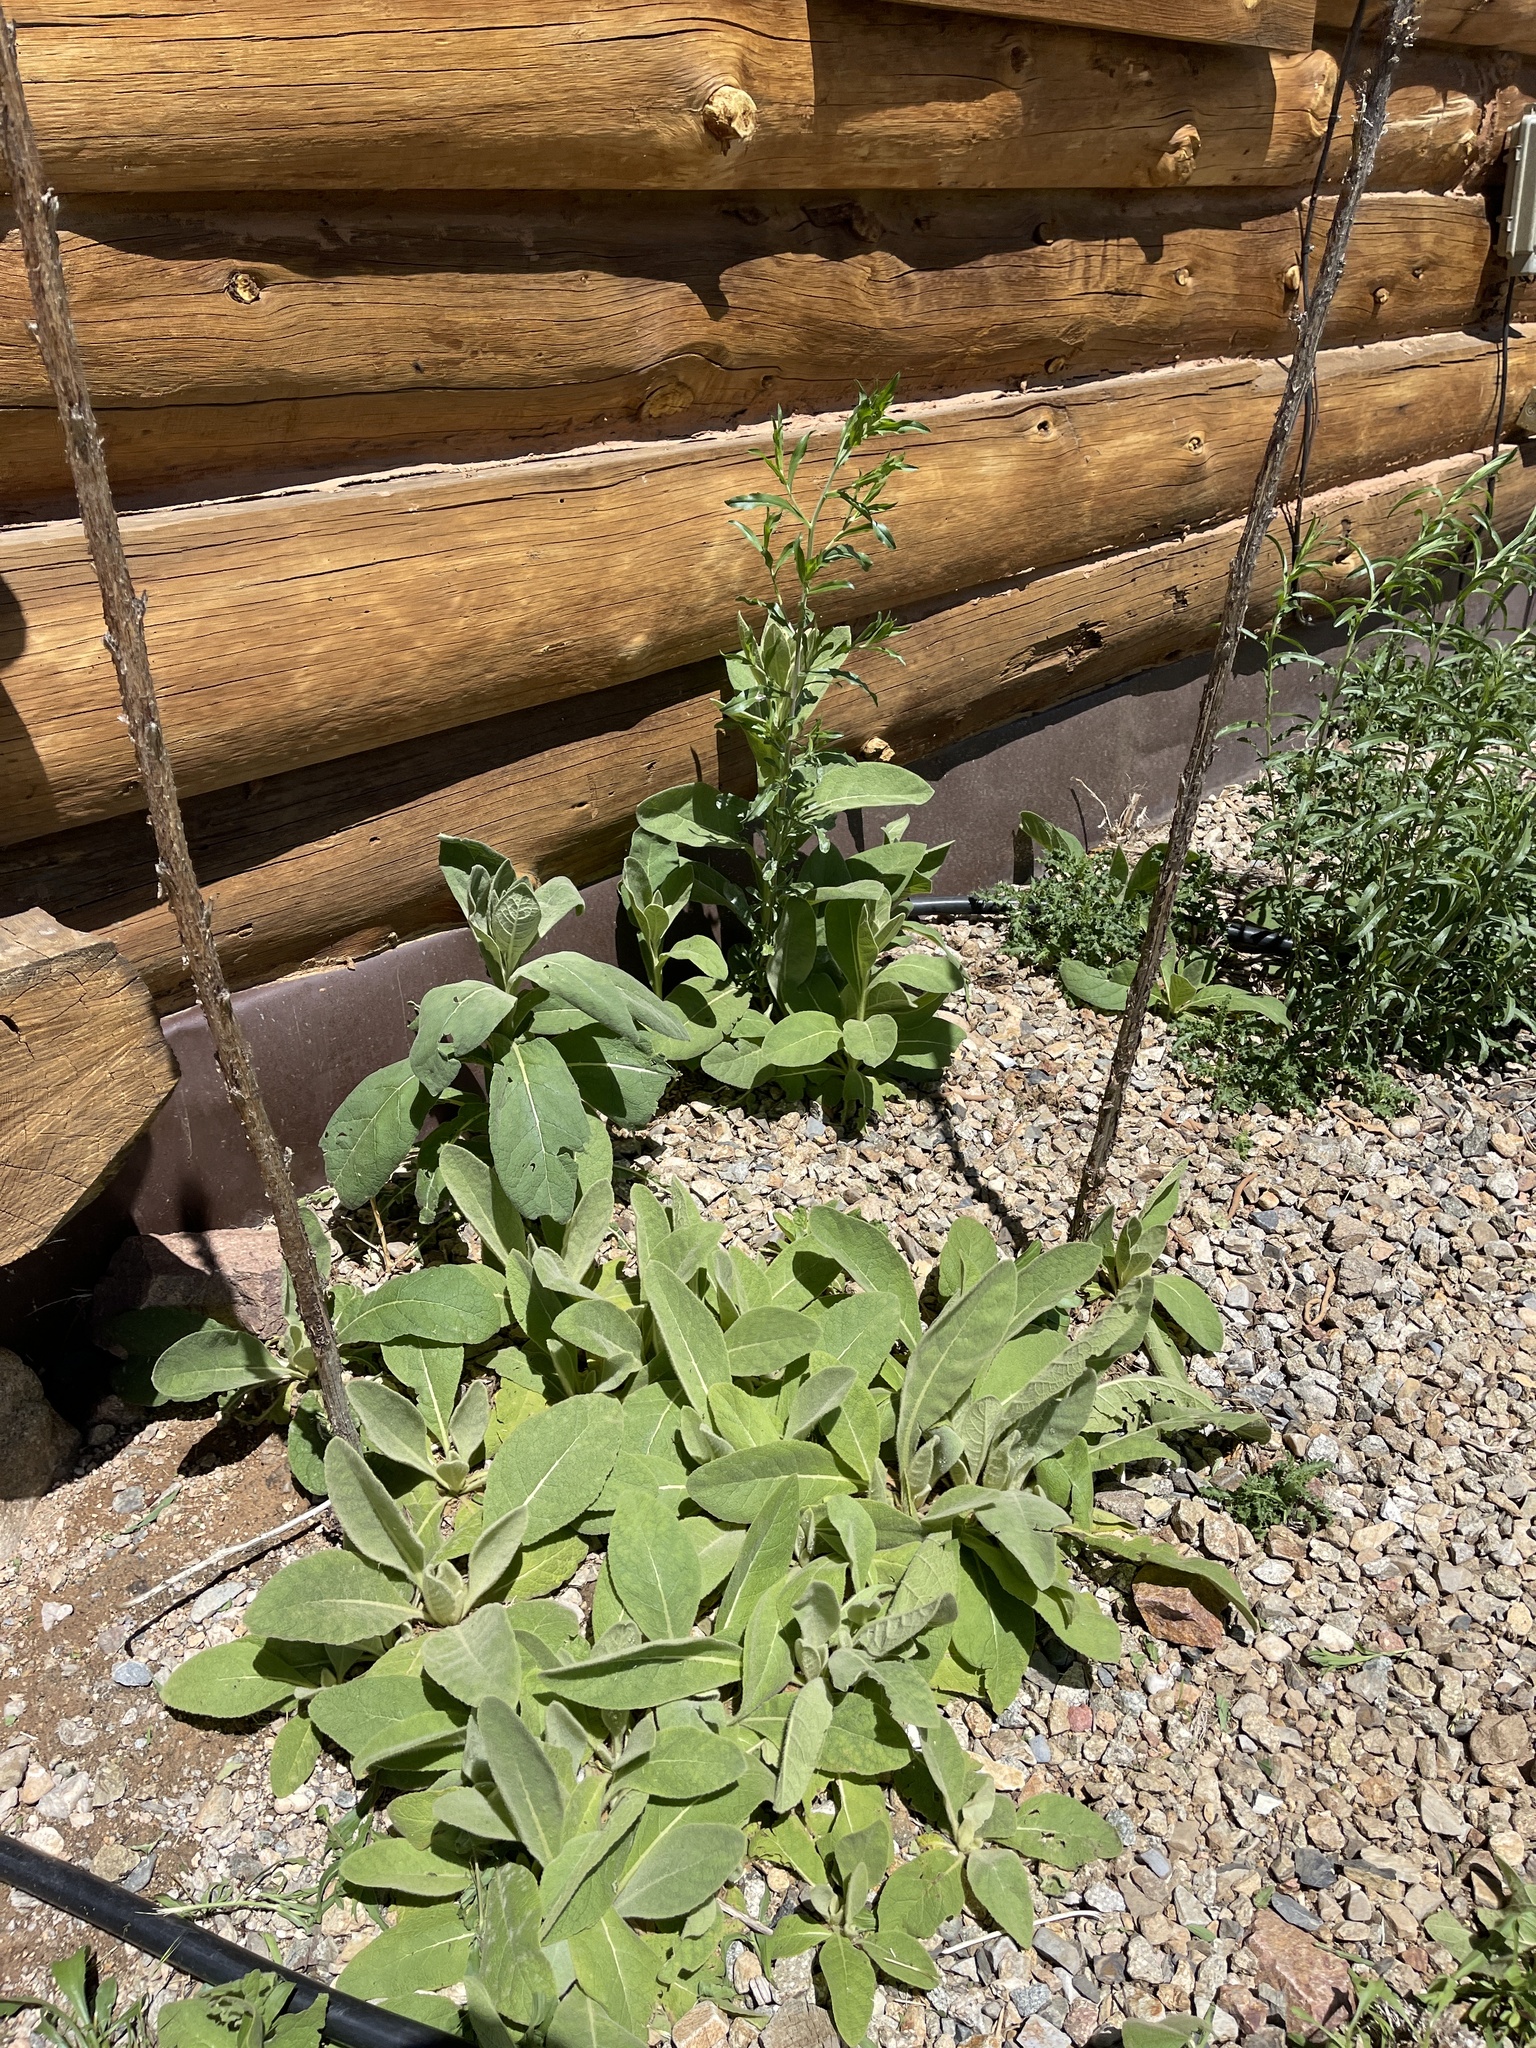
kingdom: Plantae
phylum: Tracheophyta
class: Magnoliopsida
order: Lamiales
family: Scrophulariaceae
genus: Verbascum
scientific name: Verbascum thapsus
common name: Common mullein
